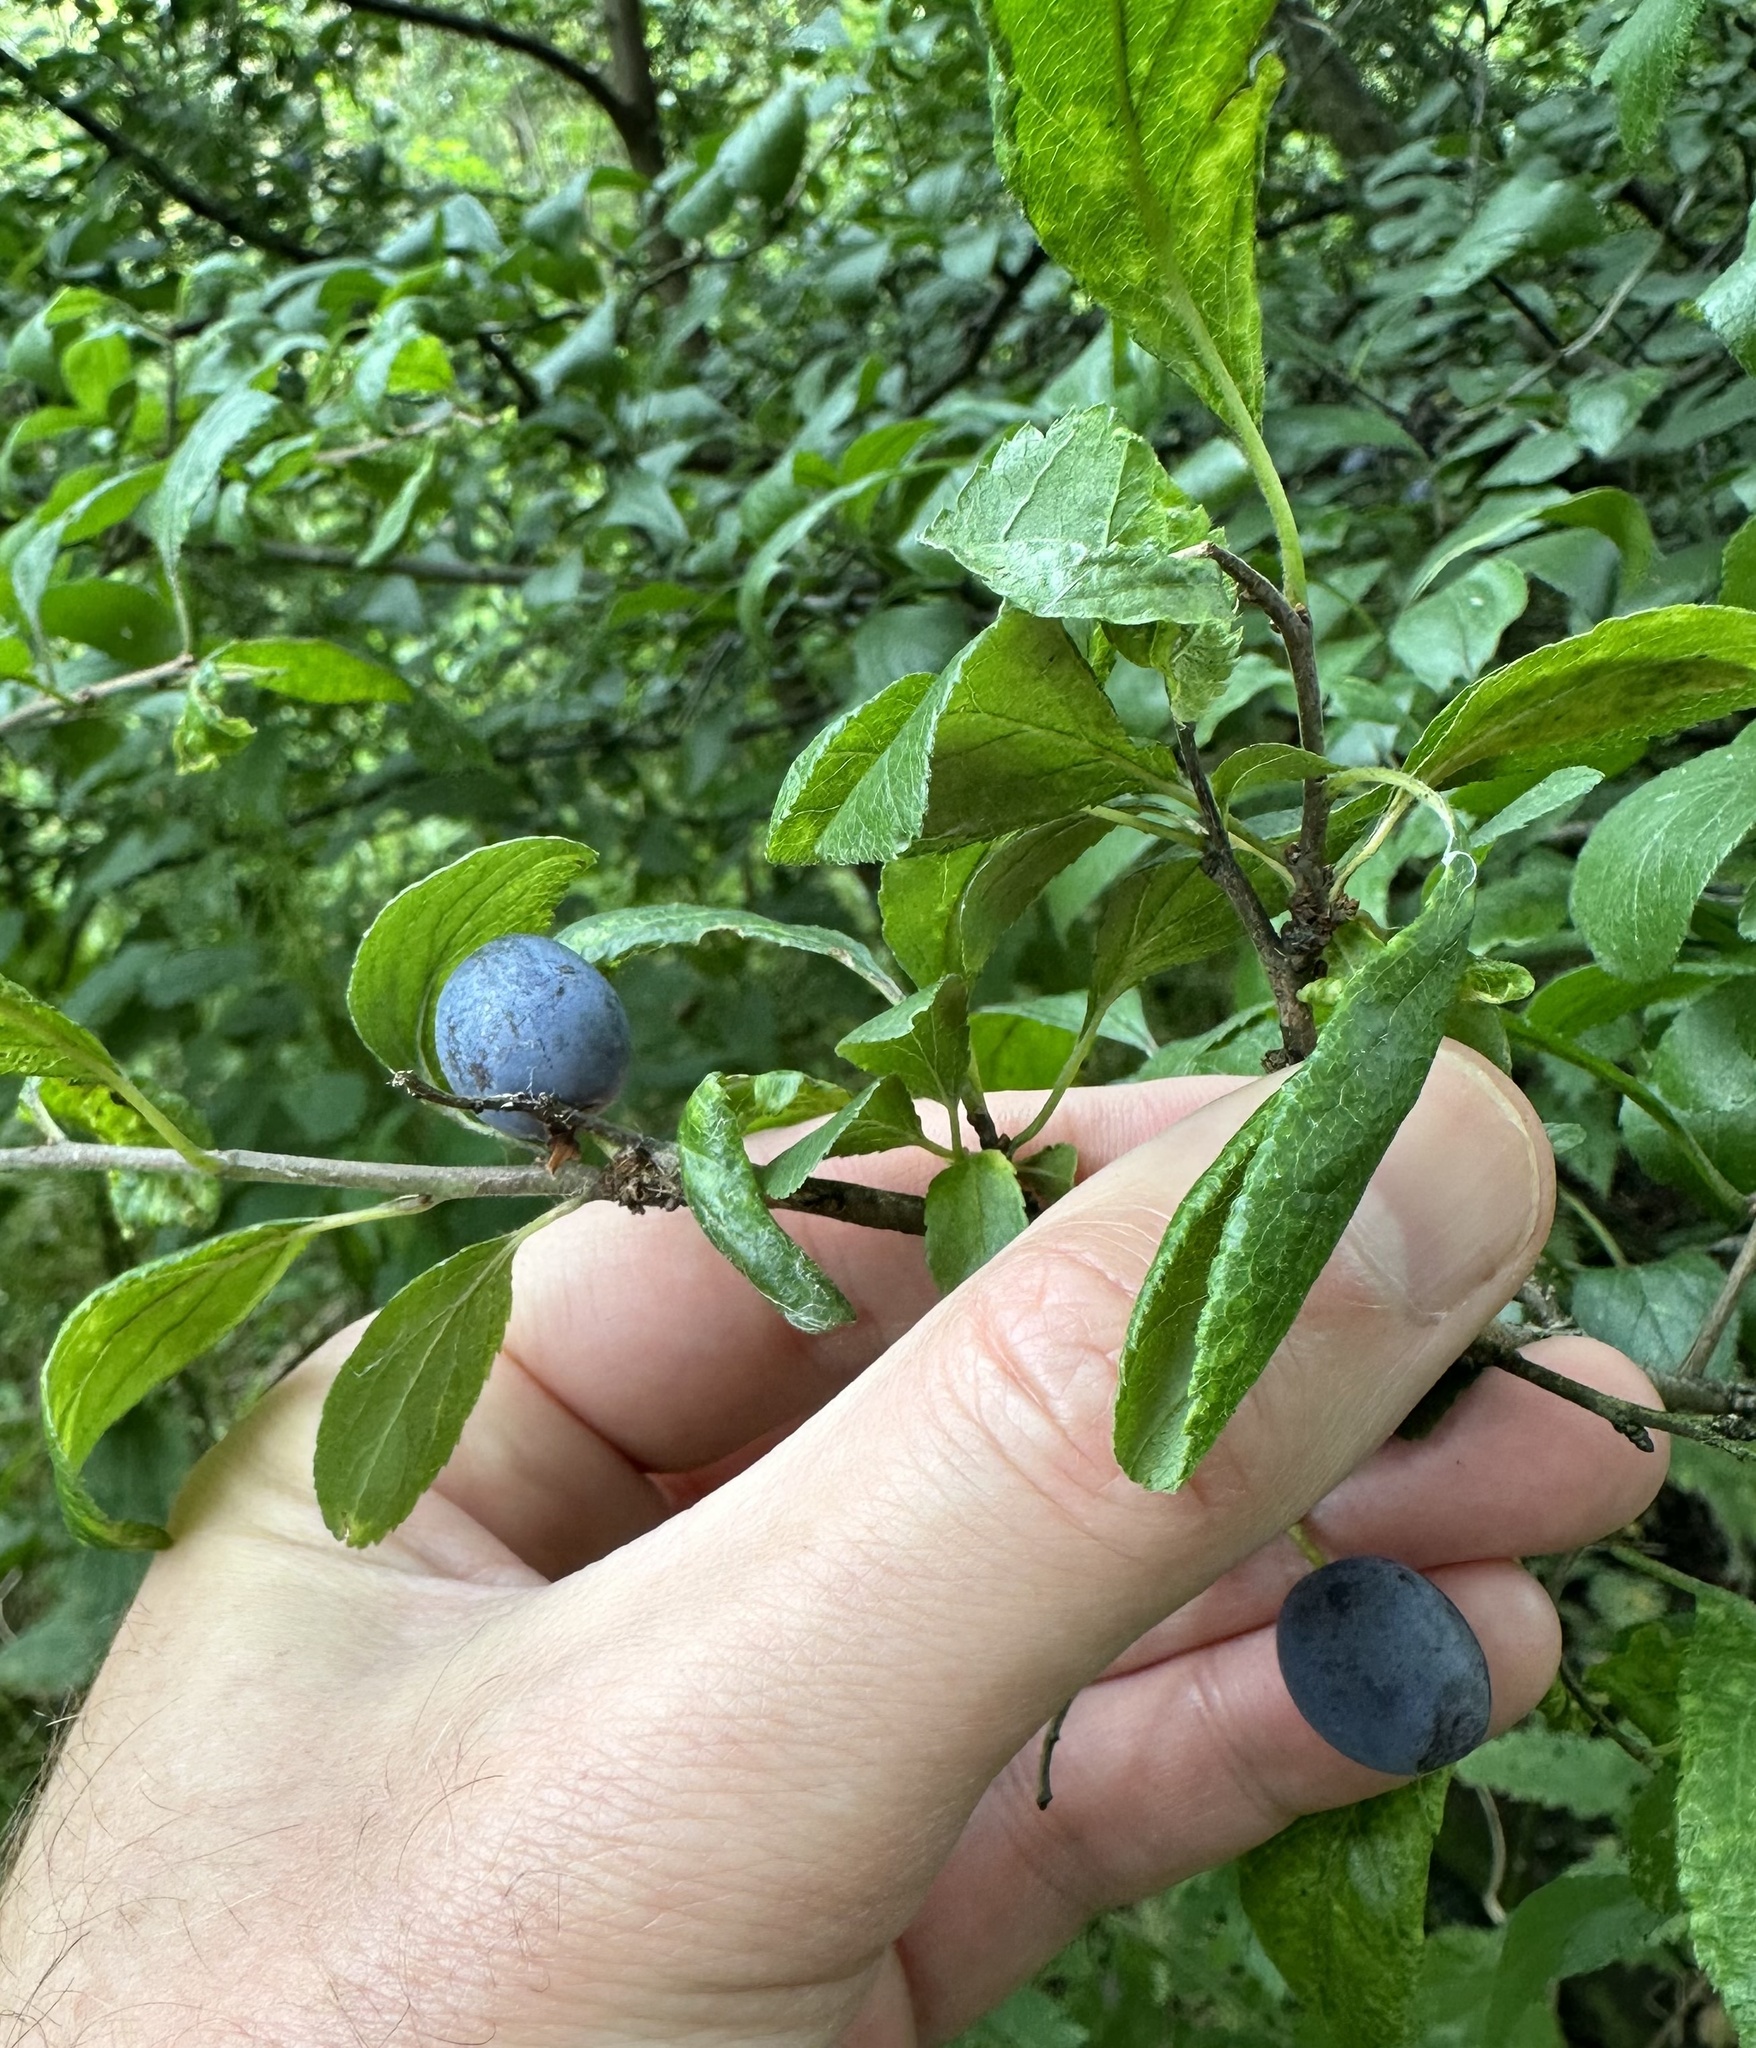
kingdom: Plantae
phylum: Tracheophyta
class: Magnoliopsida
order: Rosales
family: Rosaceae
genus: Prunus
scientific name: Prunus spinosa
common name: Blackthorn
